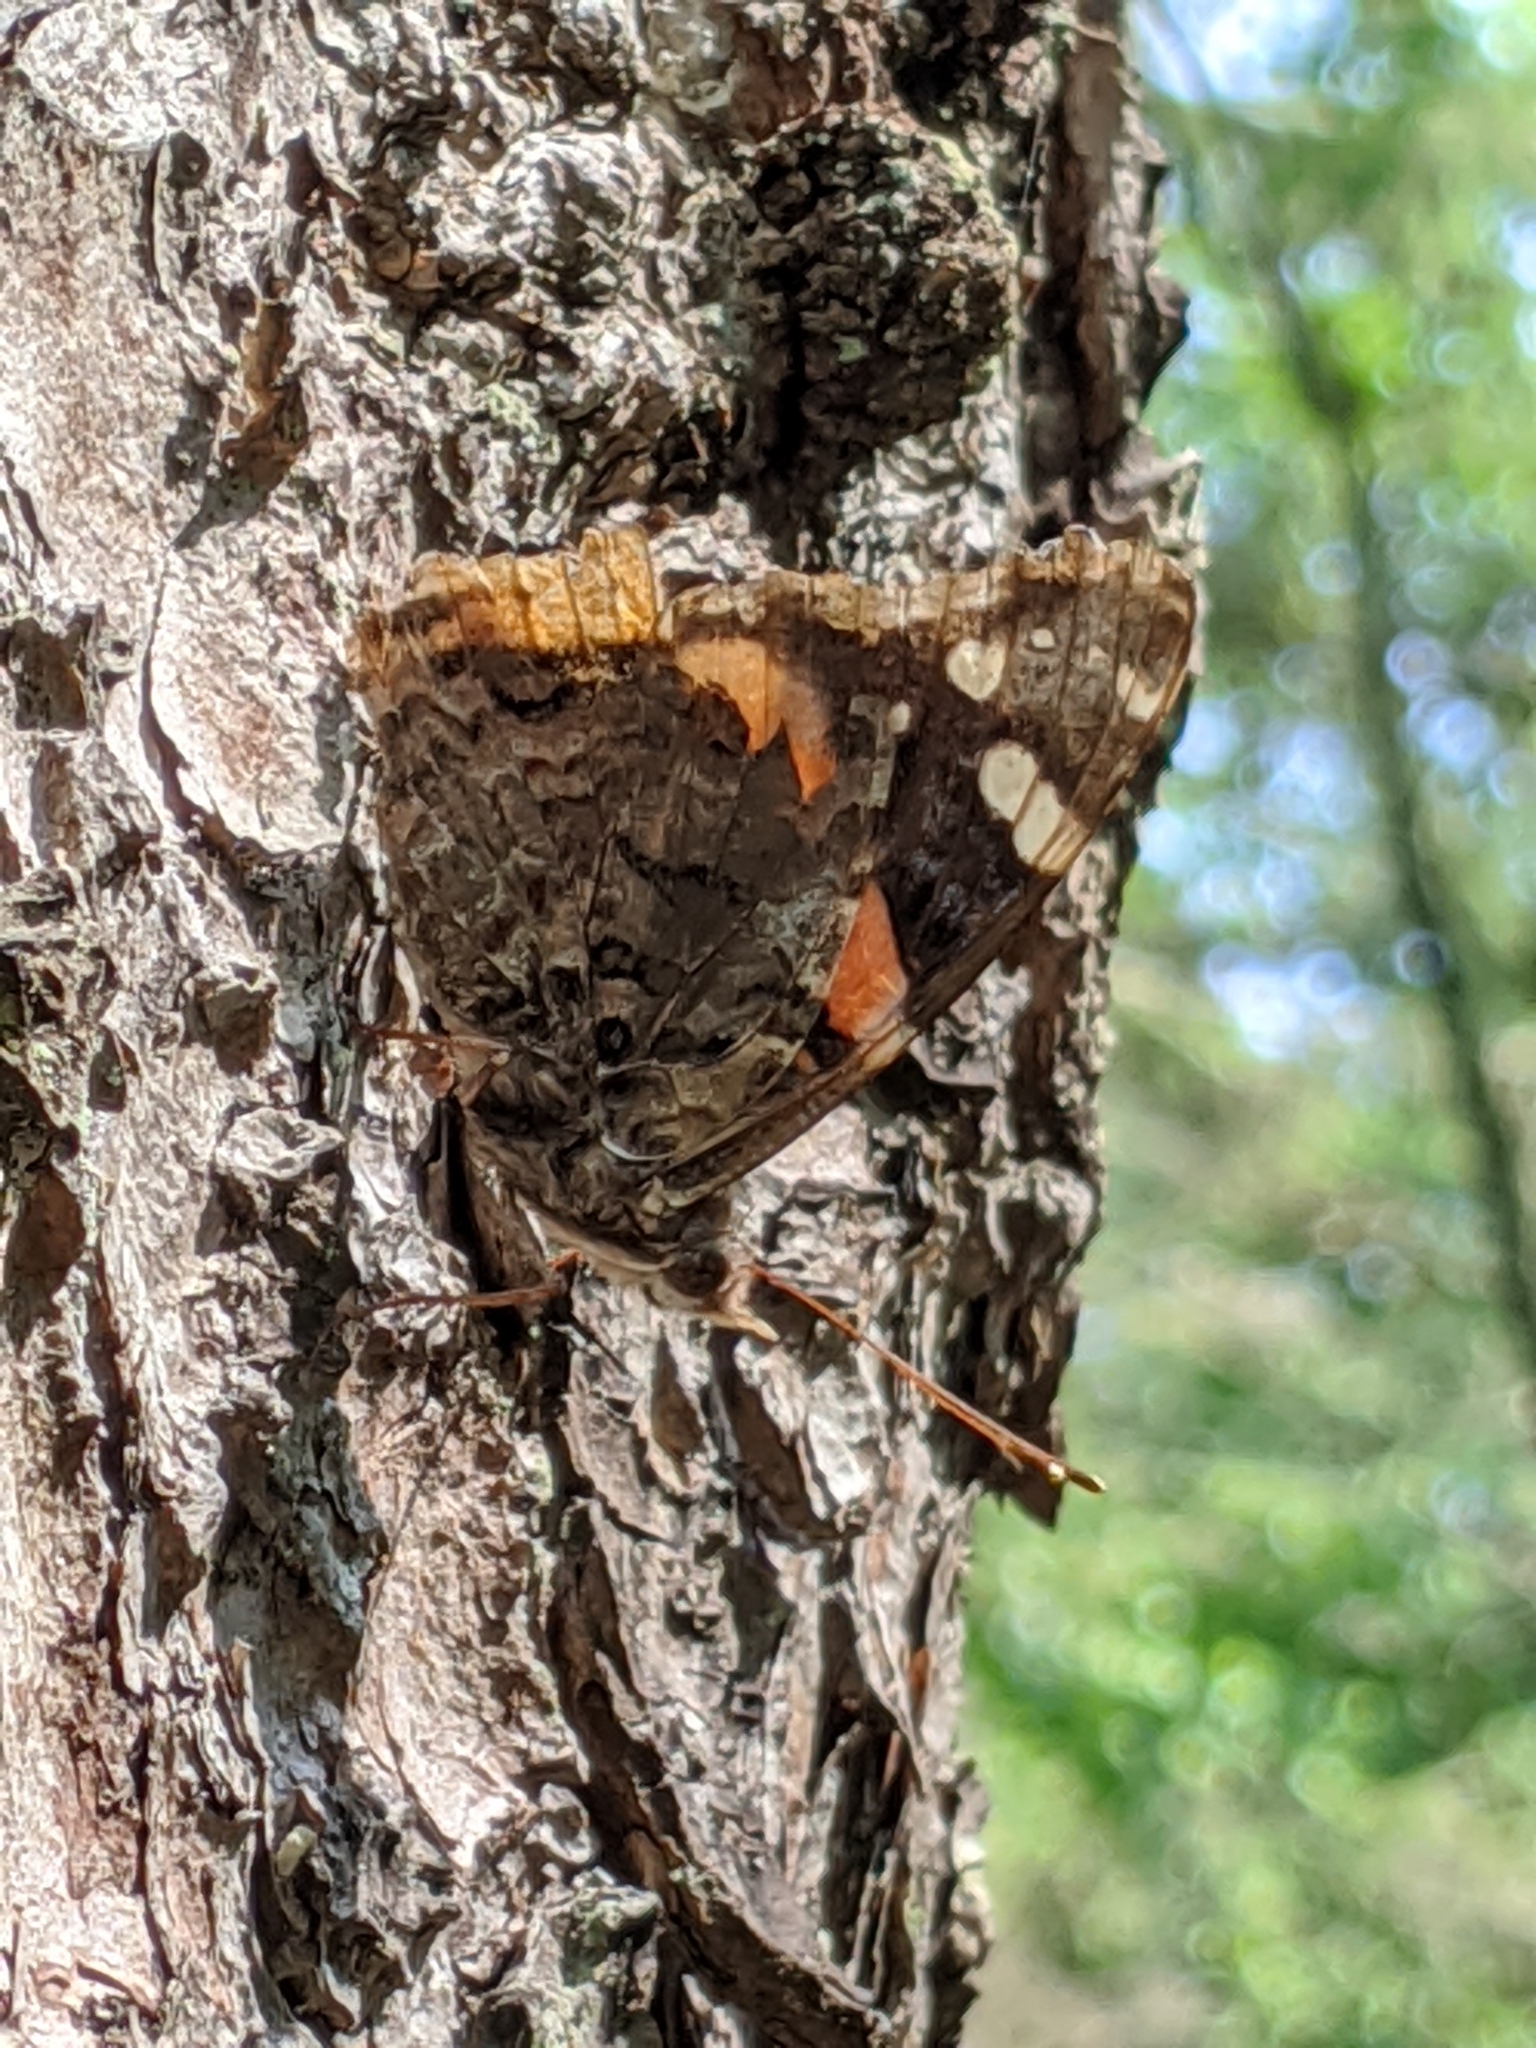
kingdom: Animalia
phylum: Arthropoda
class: Insecta
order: Lepidoptera
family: Nymphalidae
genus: Vanessa
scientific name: Vanessa atalanta
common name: Red admiral
